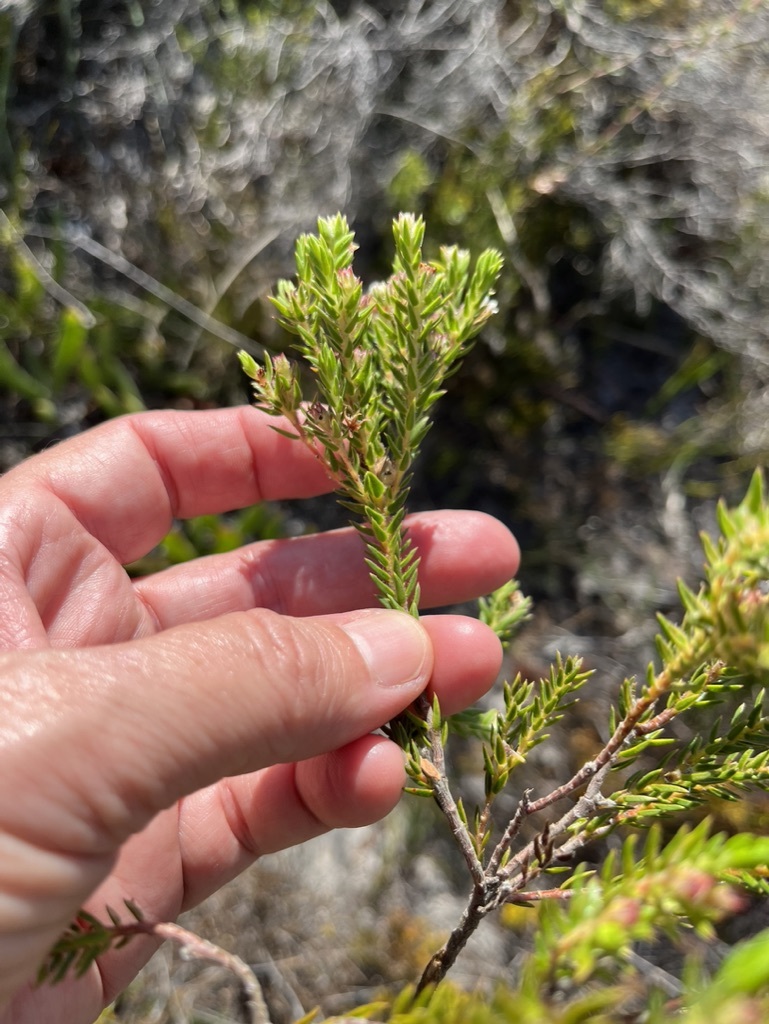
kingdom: Plantae
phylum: Tracheophyta
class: Magnoliopsida
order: Sapindales
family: Rutaceae
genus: Diosma
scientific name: Diosma arenicola
